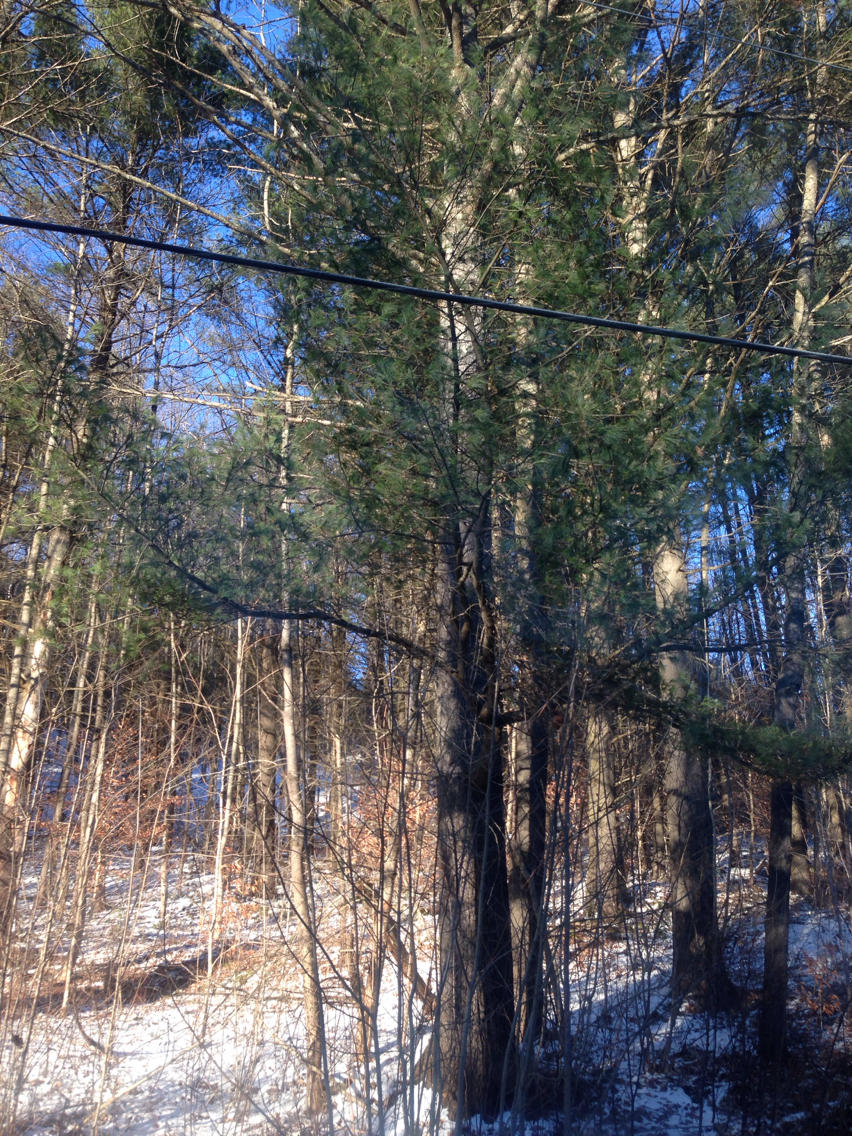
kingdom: Plantae
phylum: Tracheophyta
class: Pinopsida
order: Pinales
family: Pinaceae
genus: Pinus
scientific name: Pinus strobus
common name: Weymouth pine
